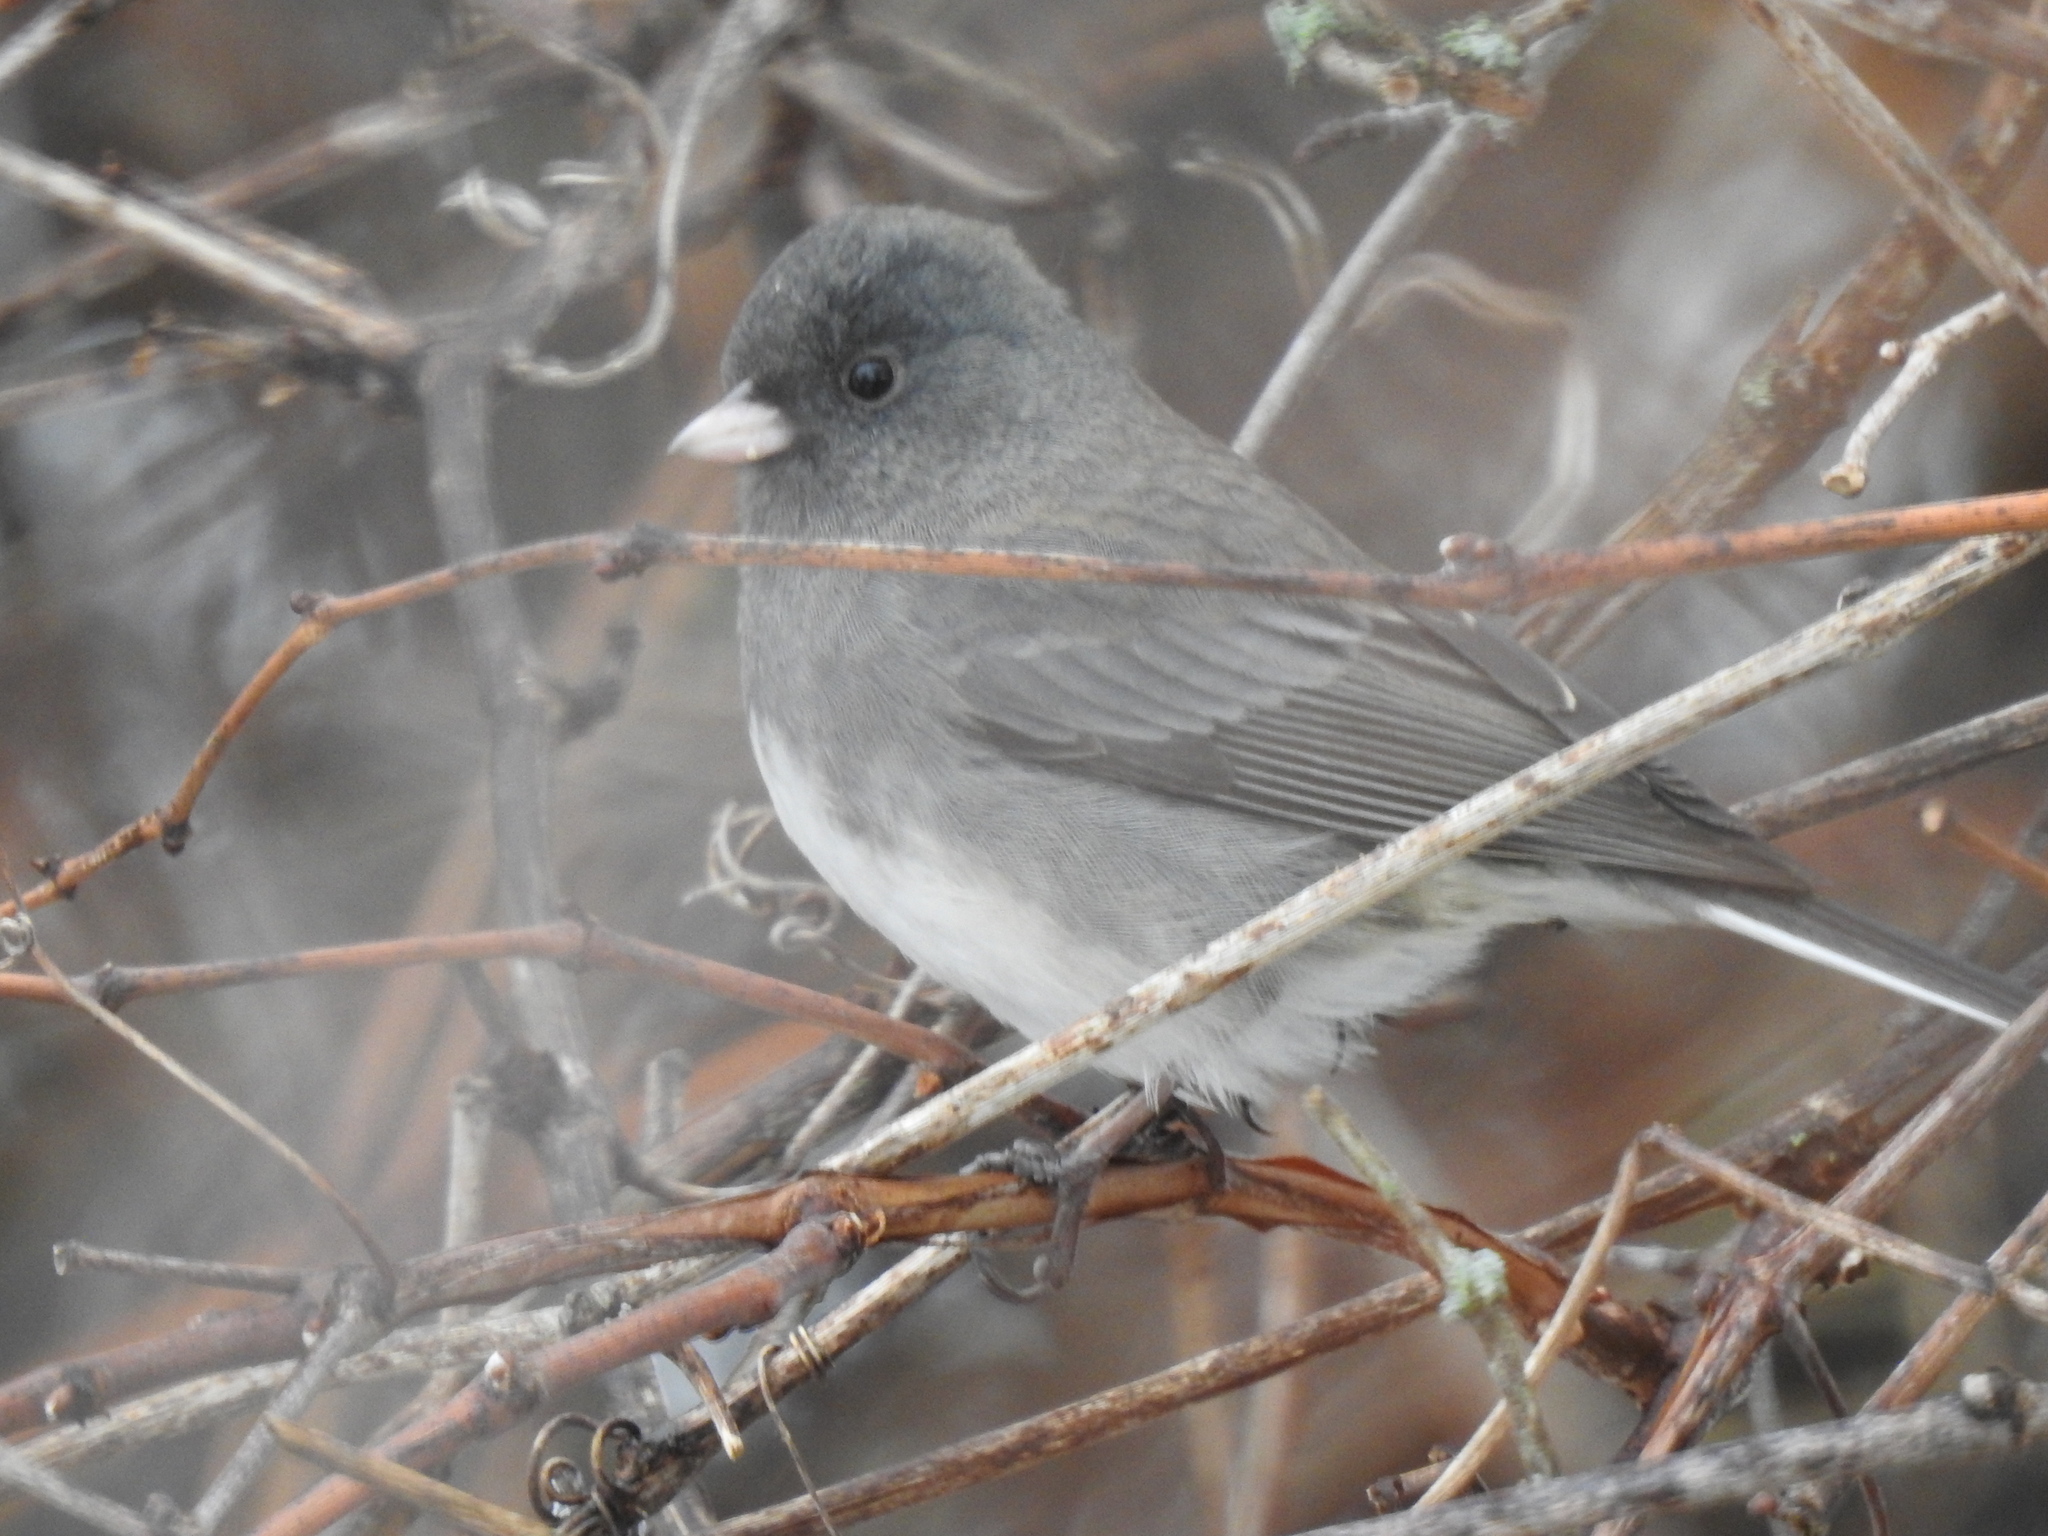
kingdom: Animalia
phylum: Chordata
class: Aves
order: Passeriformes
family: Passerellidae
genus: Junco
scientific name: Junco hyemalis
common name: Dark-eyed junco
